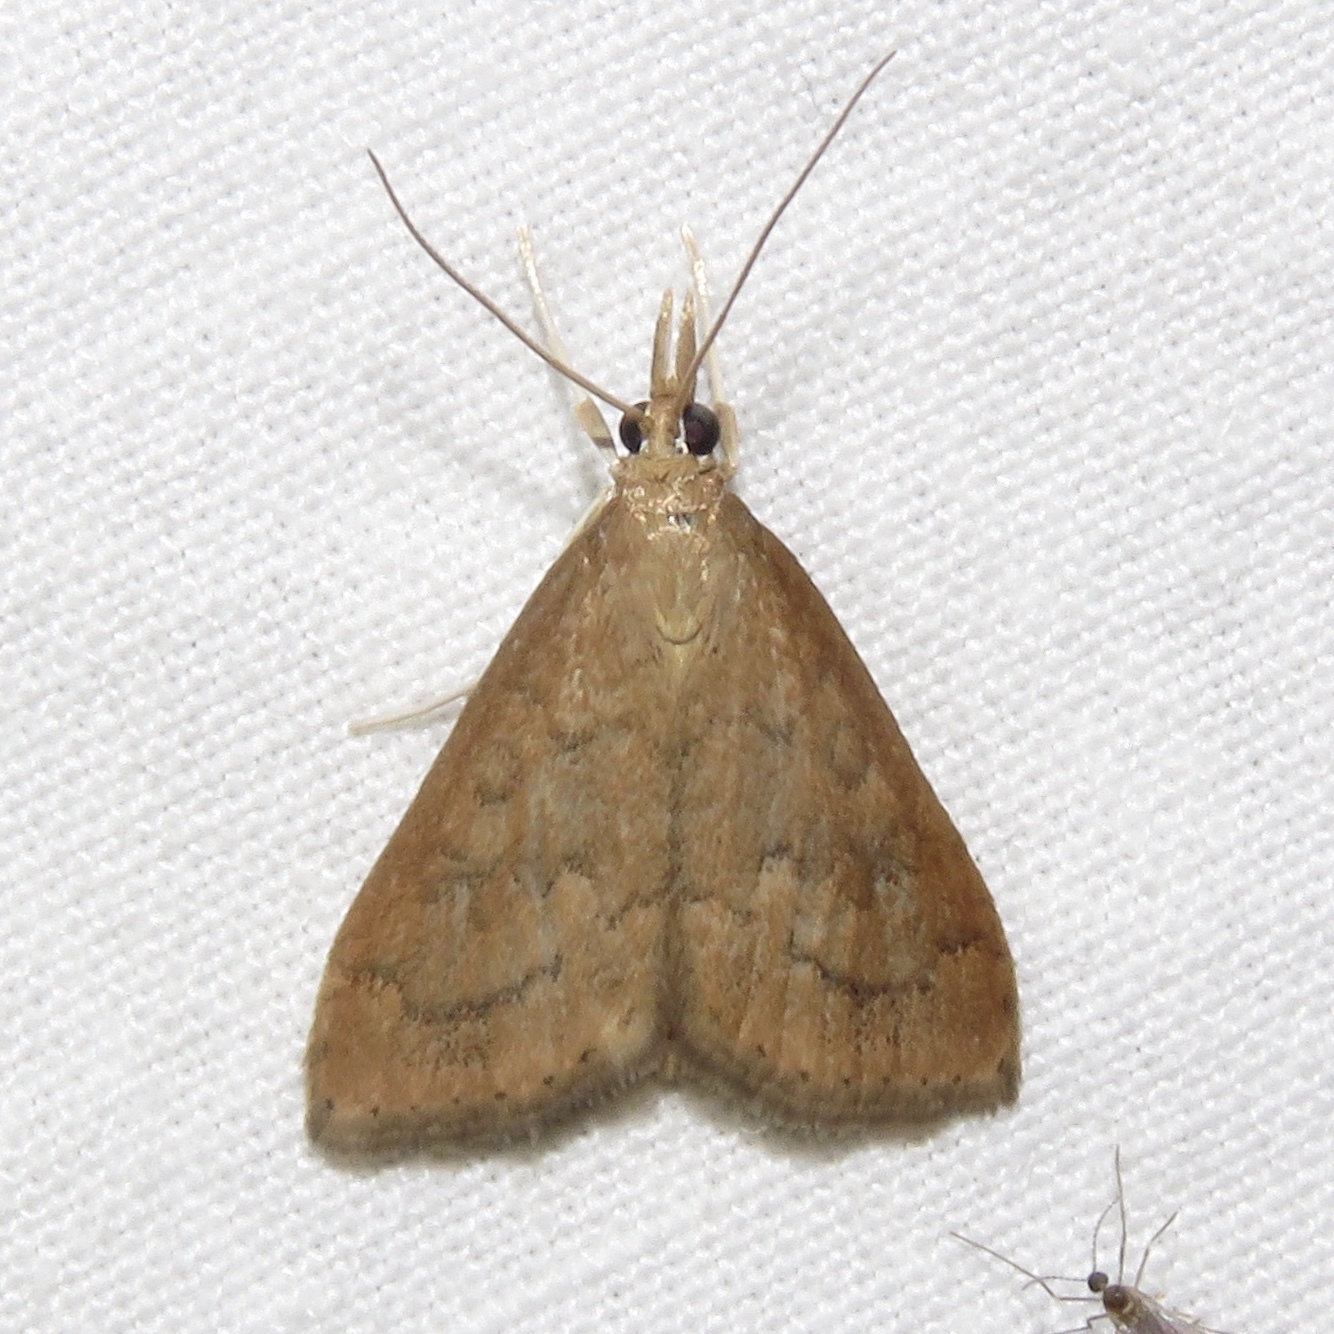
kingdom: Animalia
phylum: Arthropoda
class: Insecta
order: Lepidoptera
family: Crambidae
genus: Udea
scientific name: Udea rubigalis
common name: Celery leaftier moth
